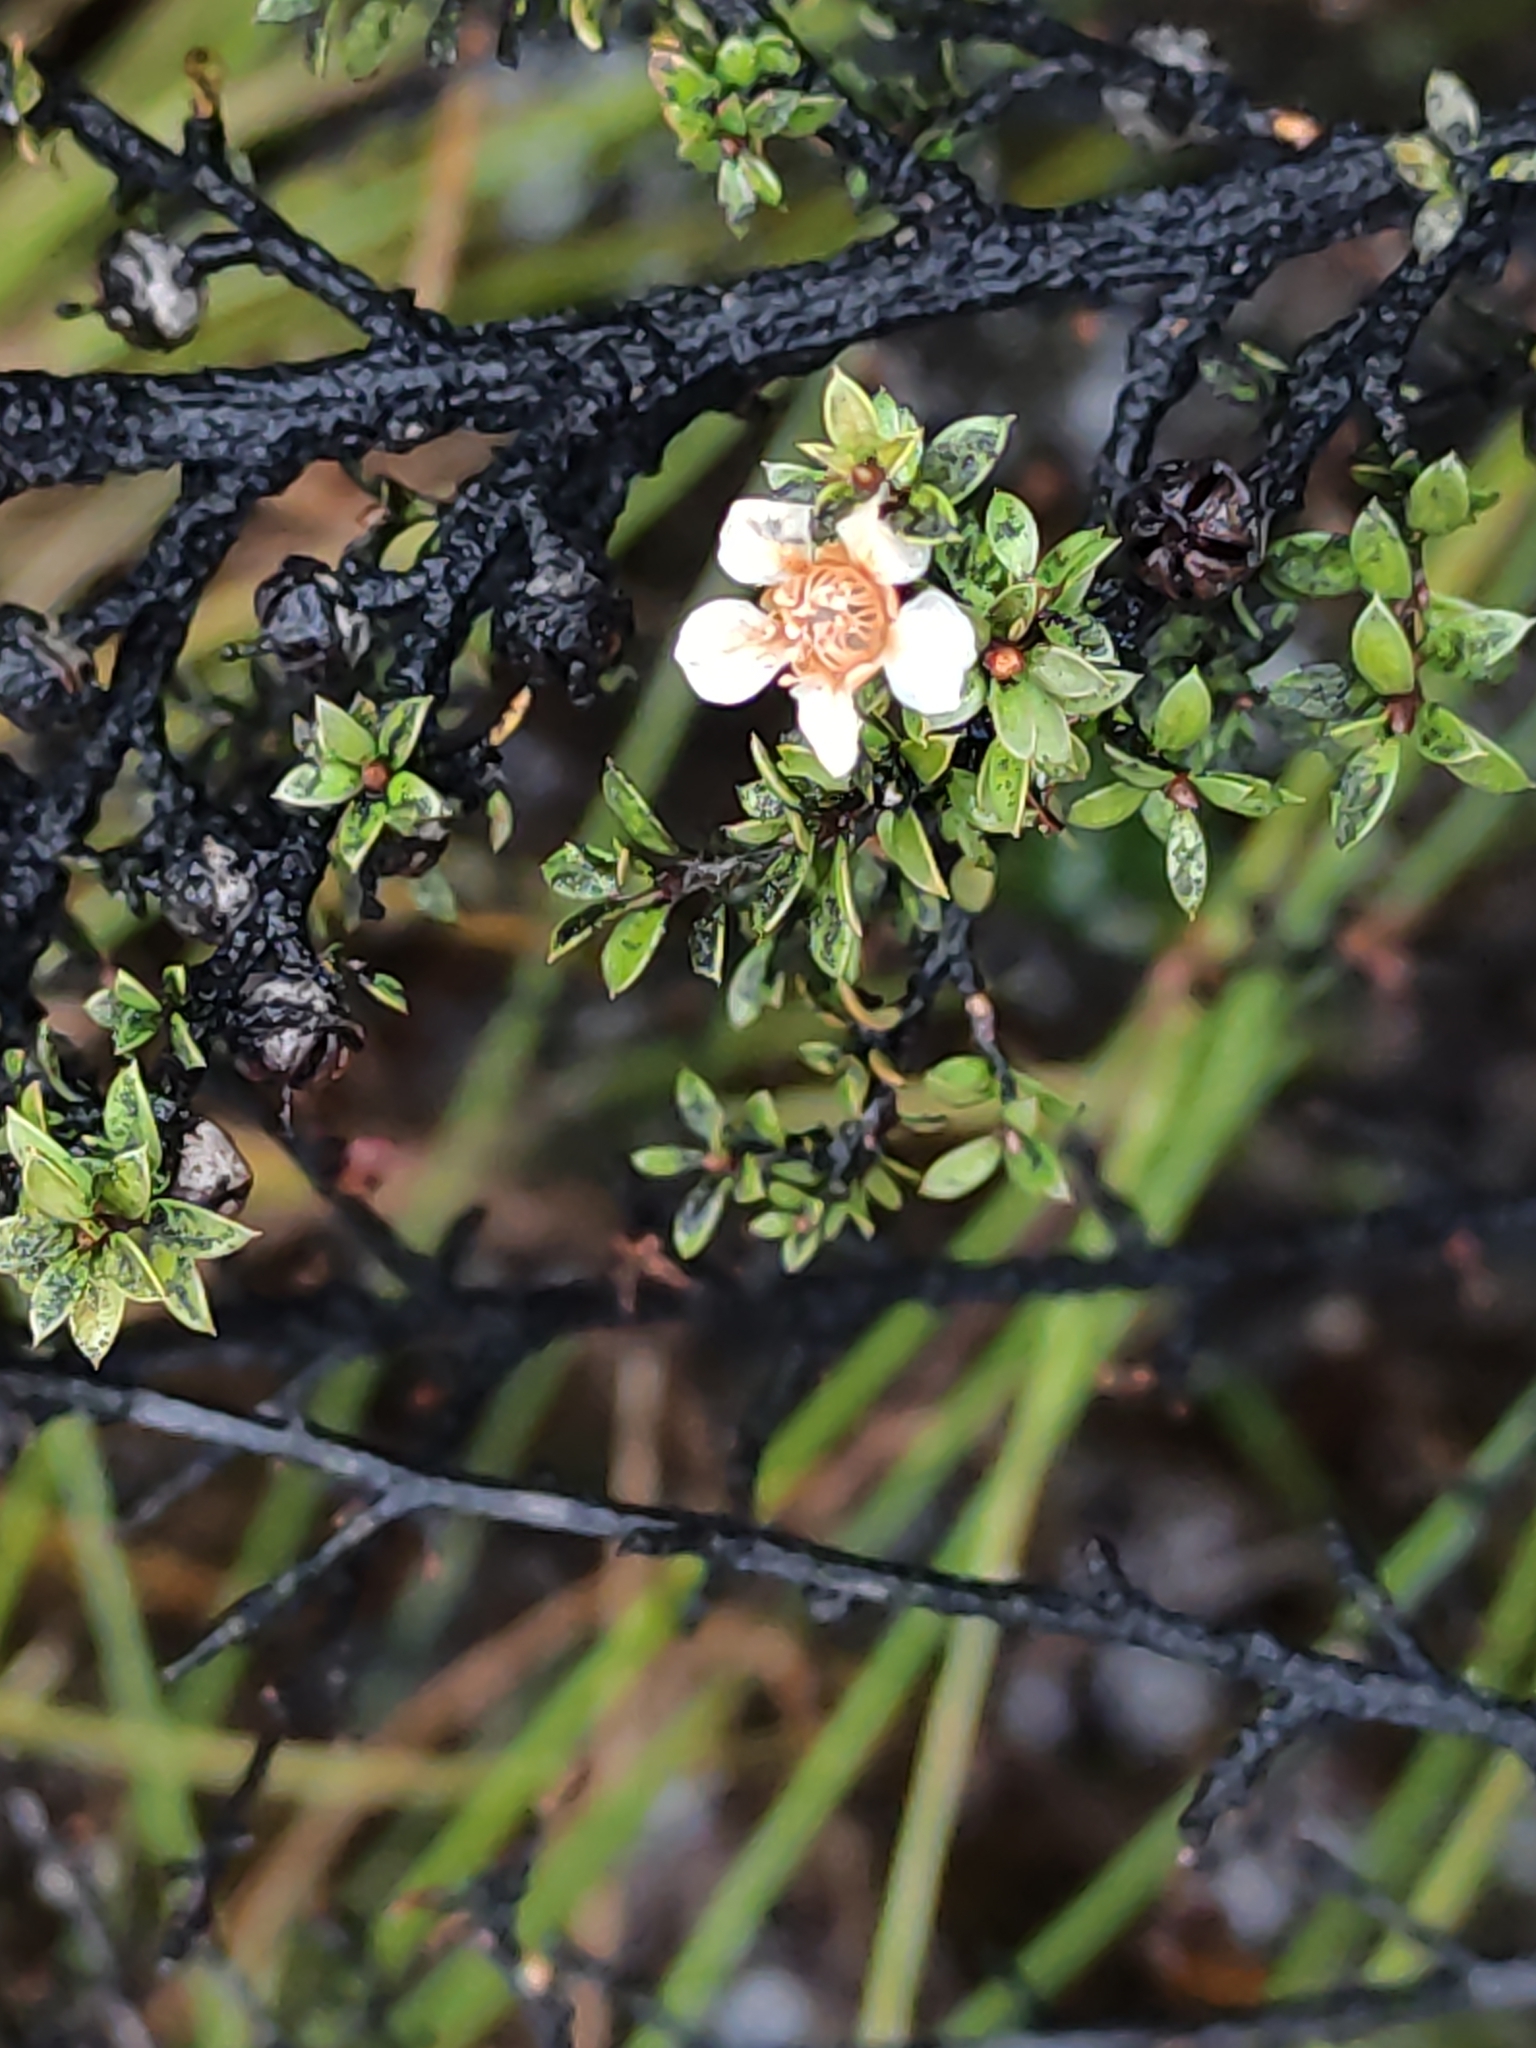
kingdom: Plantae
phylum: Tracheophyta
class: Magnoliopsida
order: Myrtales
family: Myrtaceae
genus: Leptospermum
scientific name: Leptospermum scoparium
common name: Broom tea-tree
